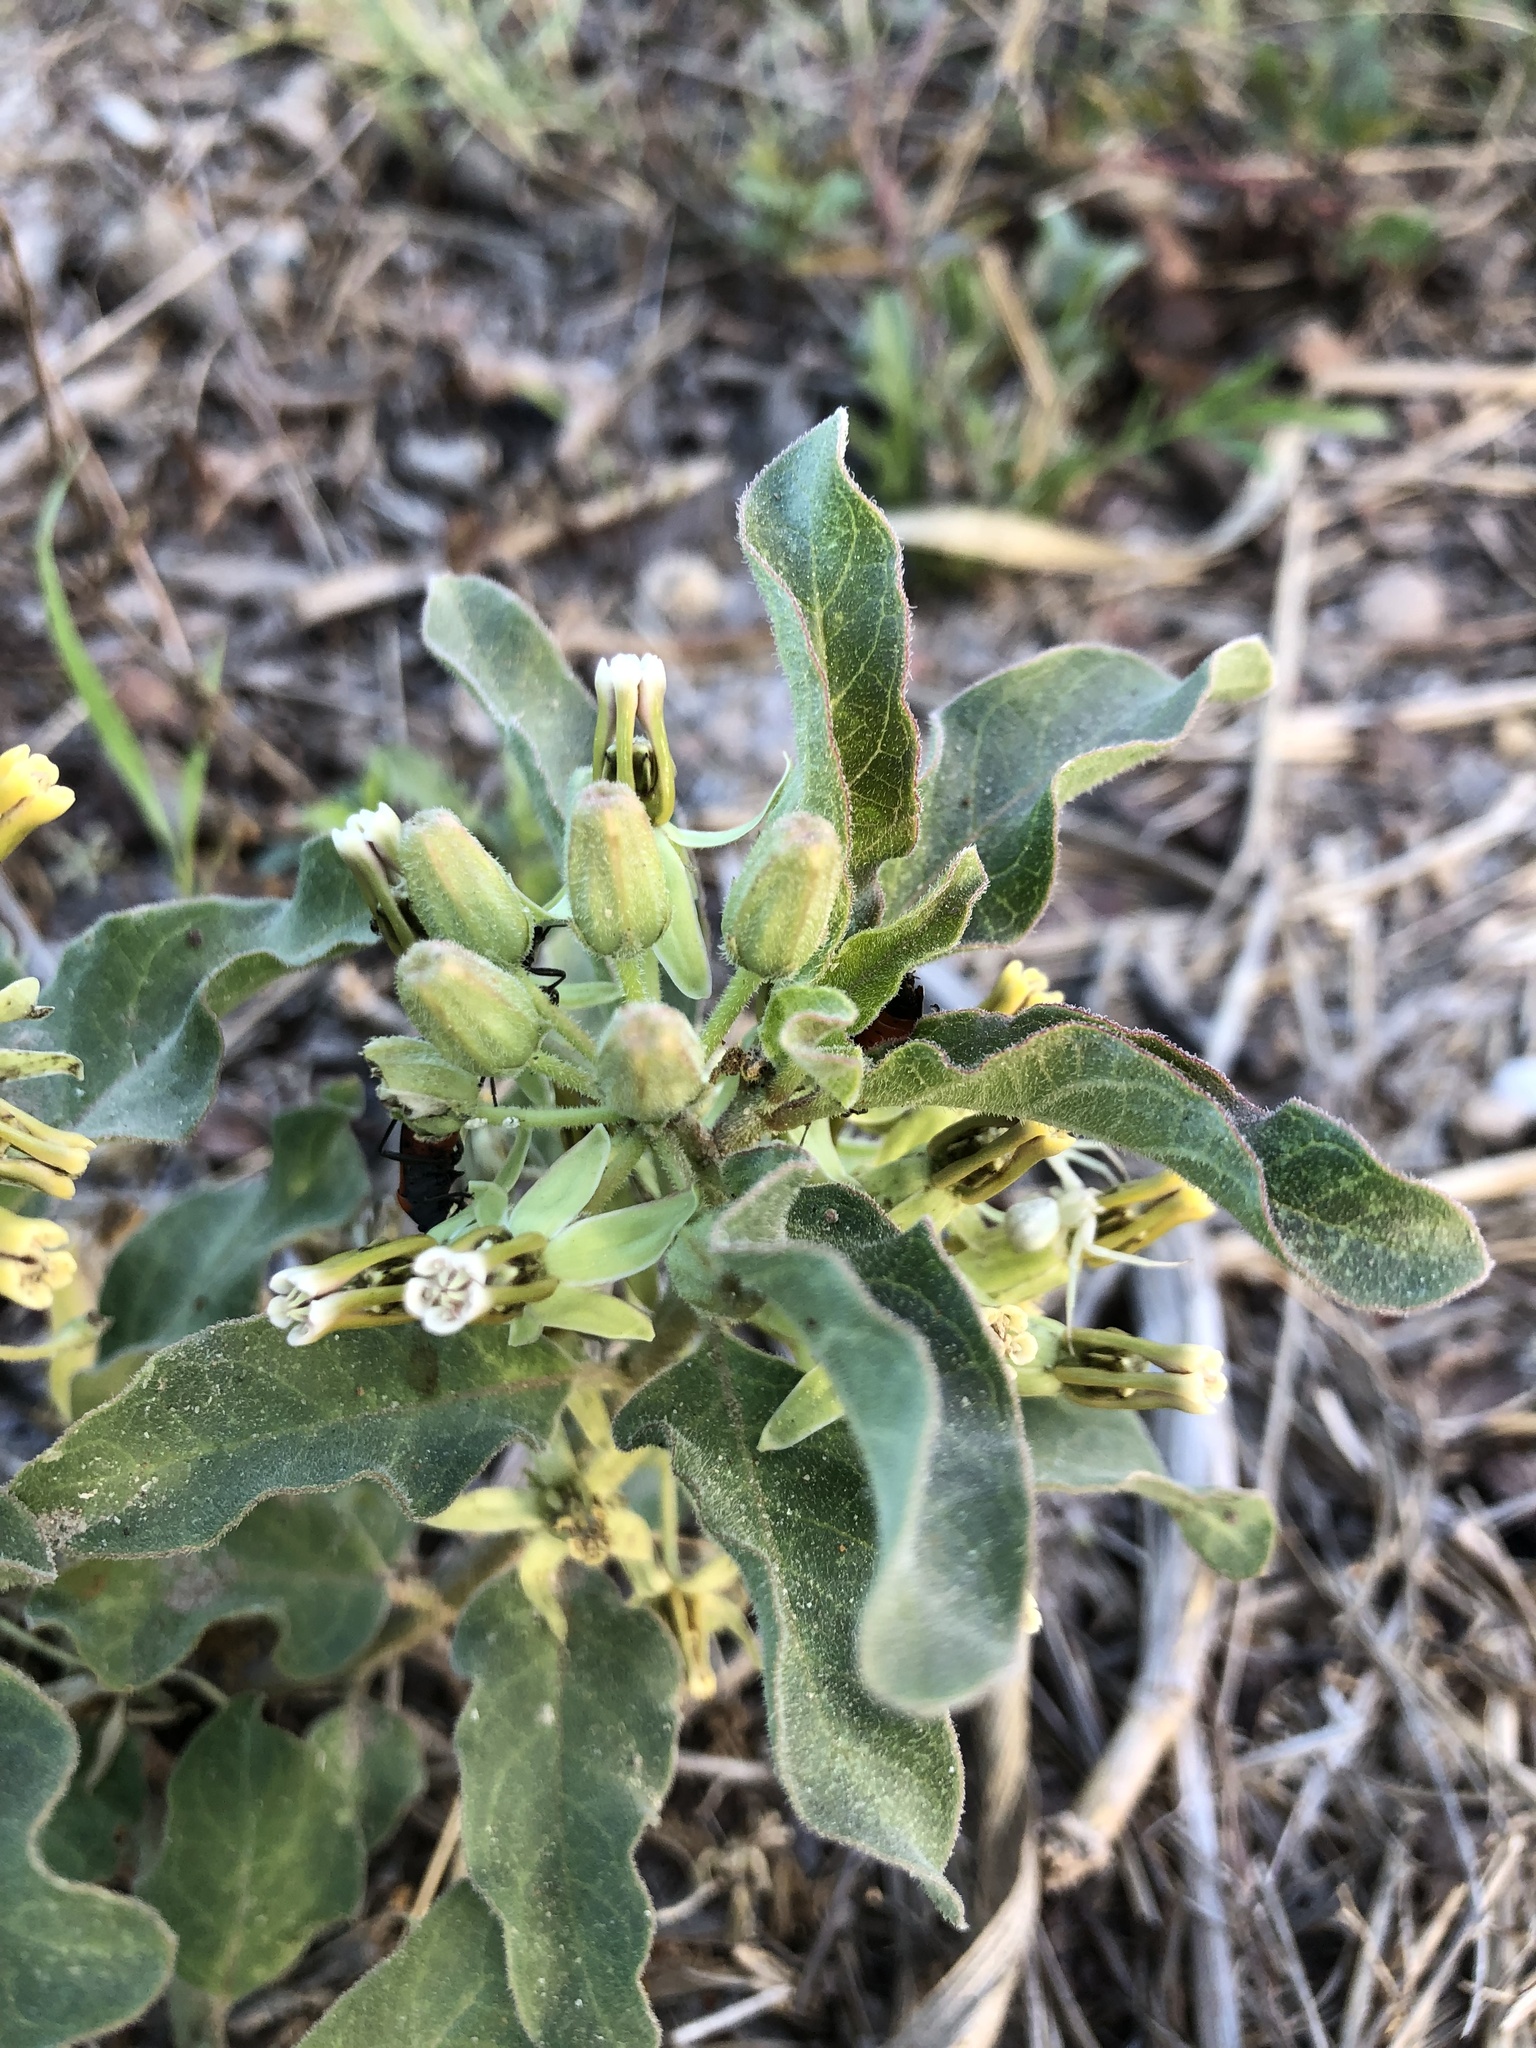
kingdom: Plantae
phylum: Tracheophyta
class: Magnoliopsida
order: Gentianales
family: Apocynaceae
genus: Asclepias
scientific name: Asclepias oenotheroides
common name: Zizotes milkweed
